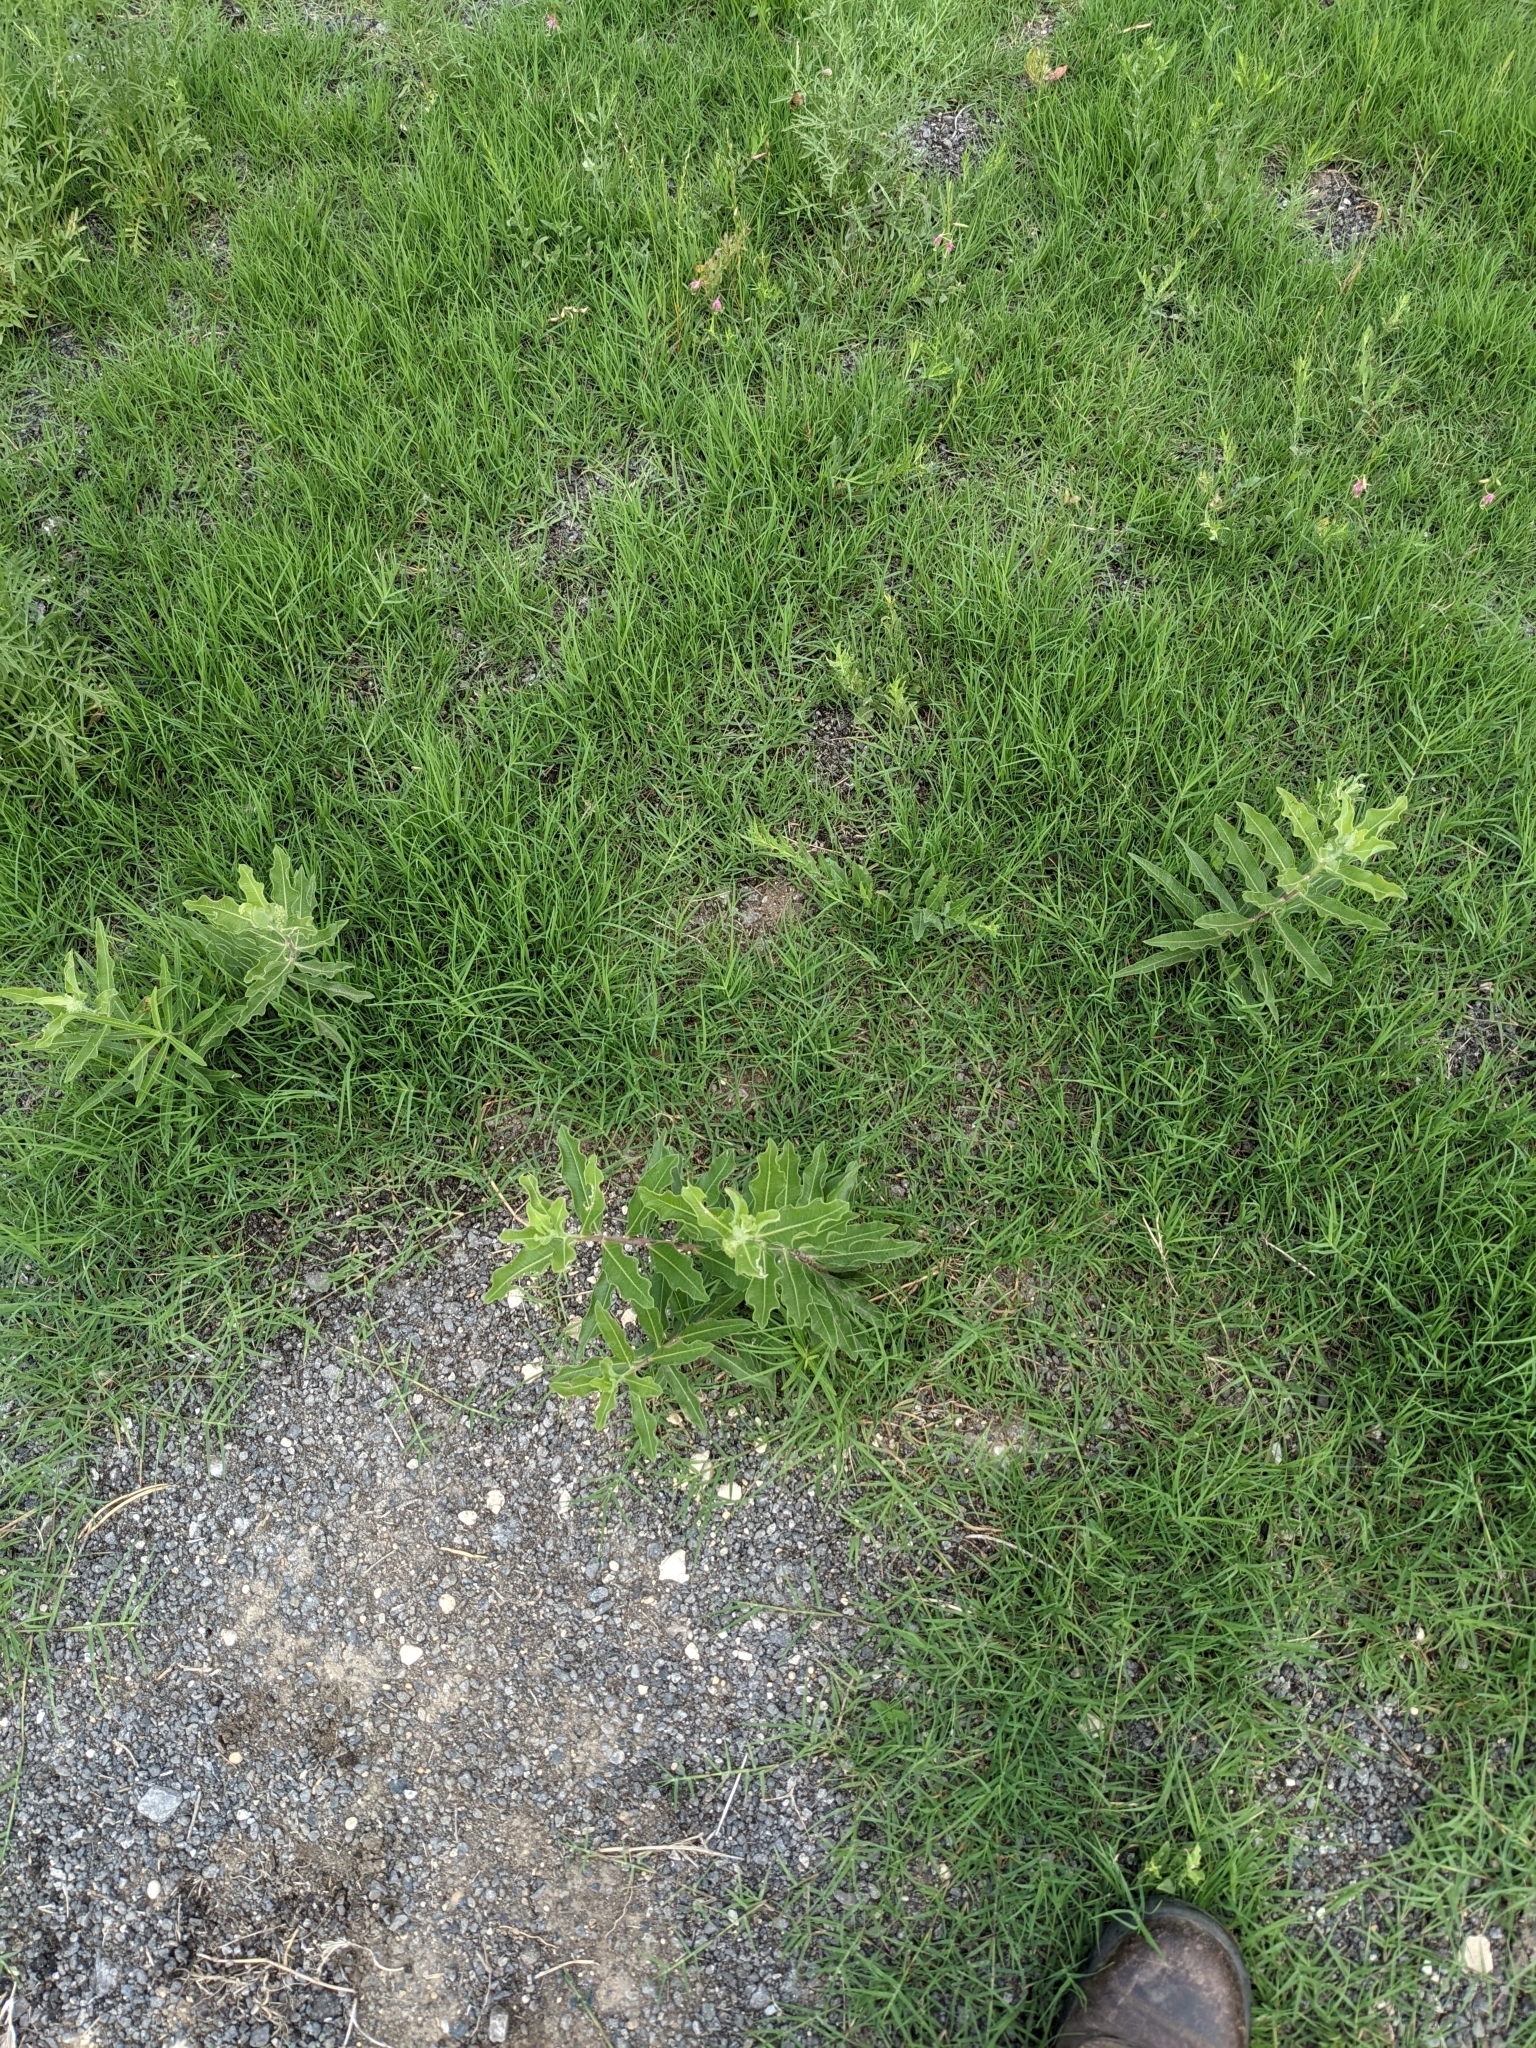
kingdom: Plantae
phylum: Tracheophyta
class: Magnoliopsida
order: Gentianales
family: Apocynaceae
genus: Asclepias
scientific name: Asclepias viridiflora
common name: Green comet milkweed
